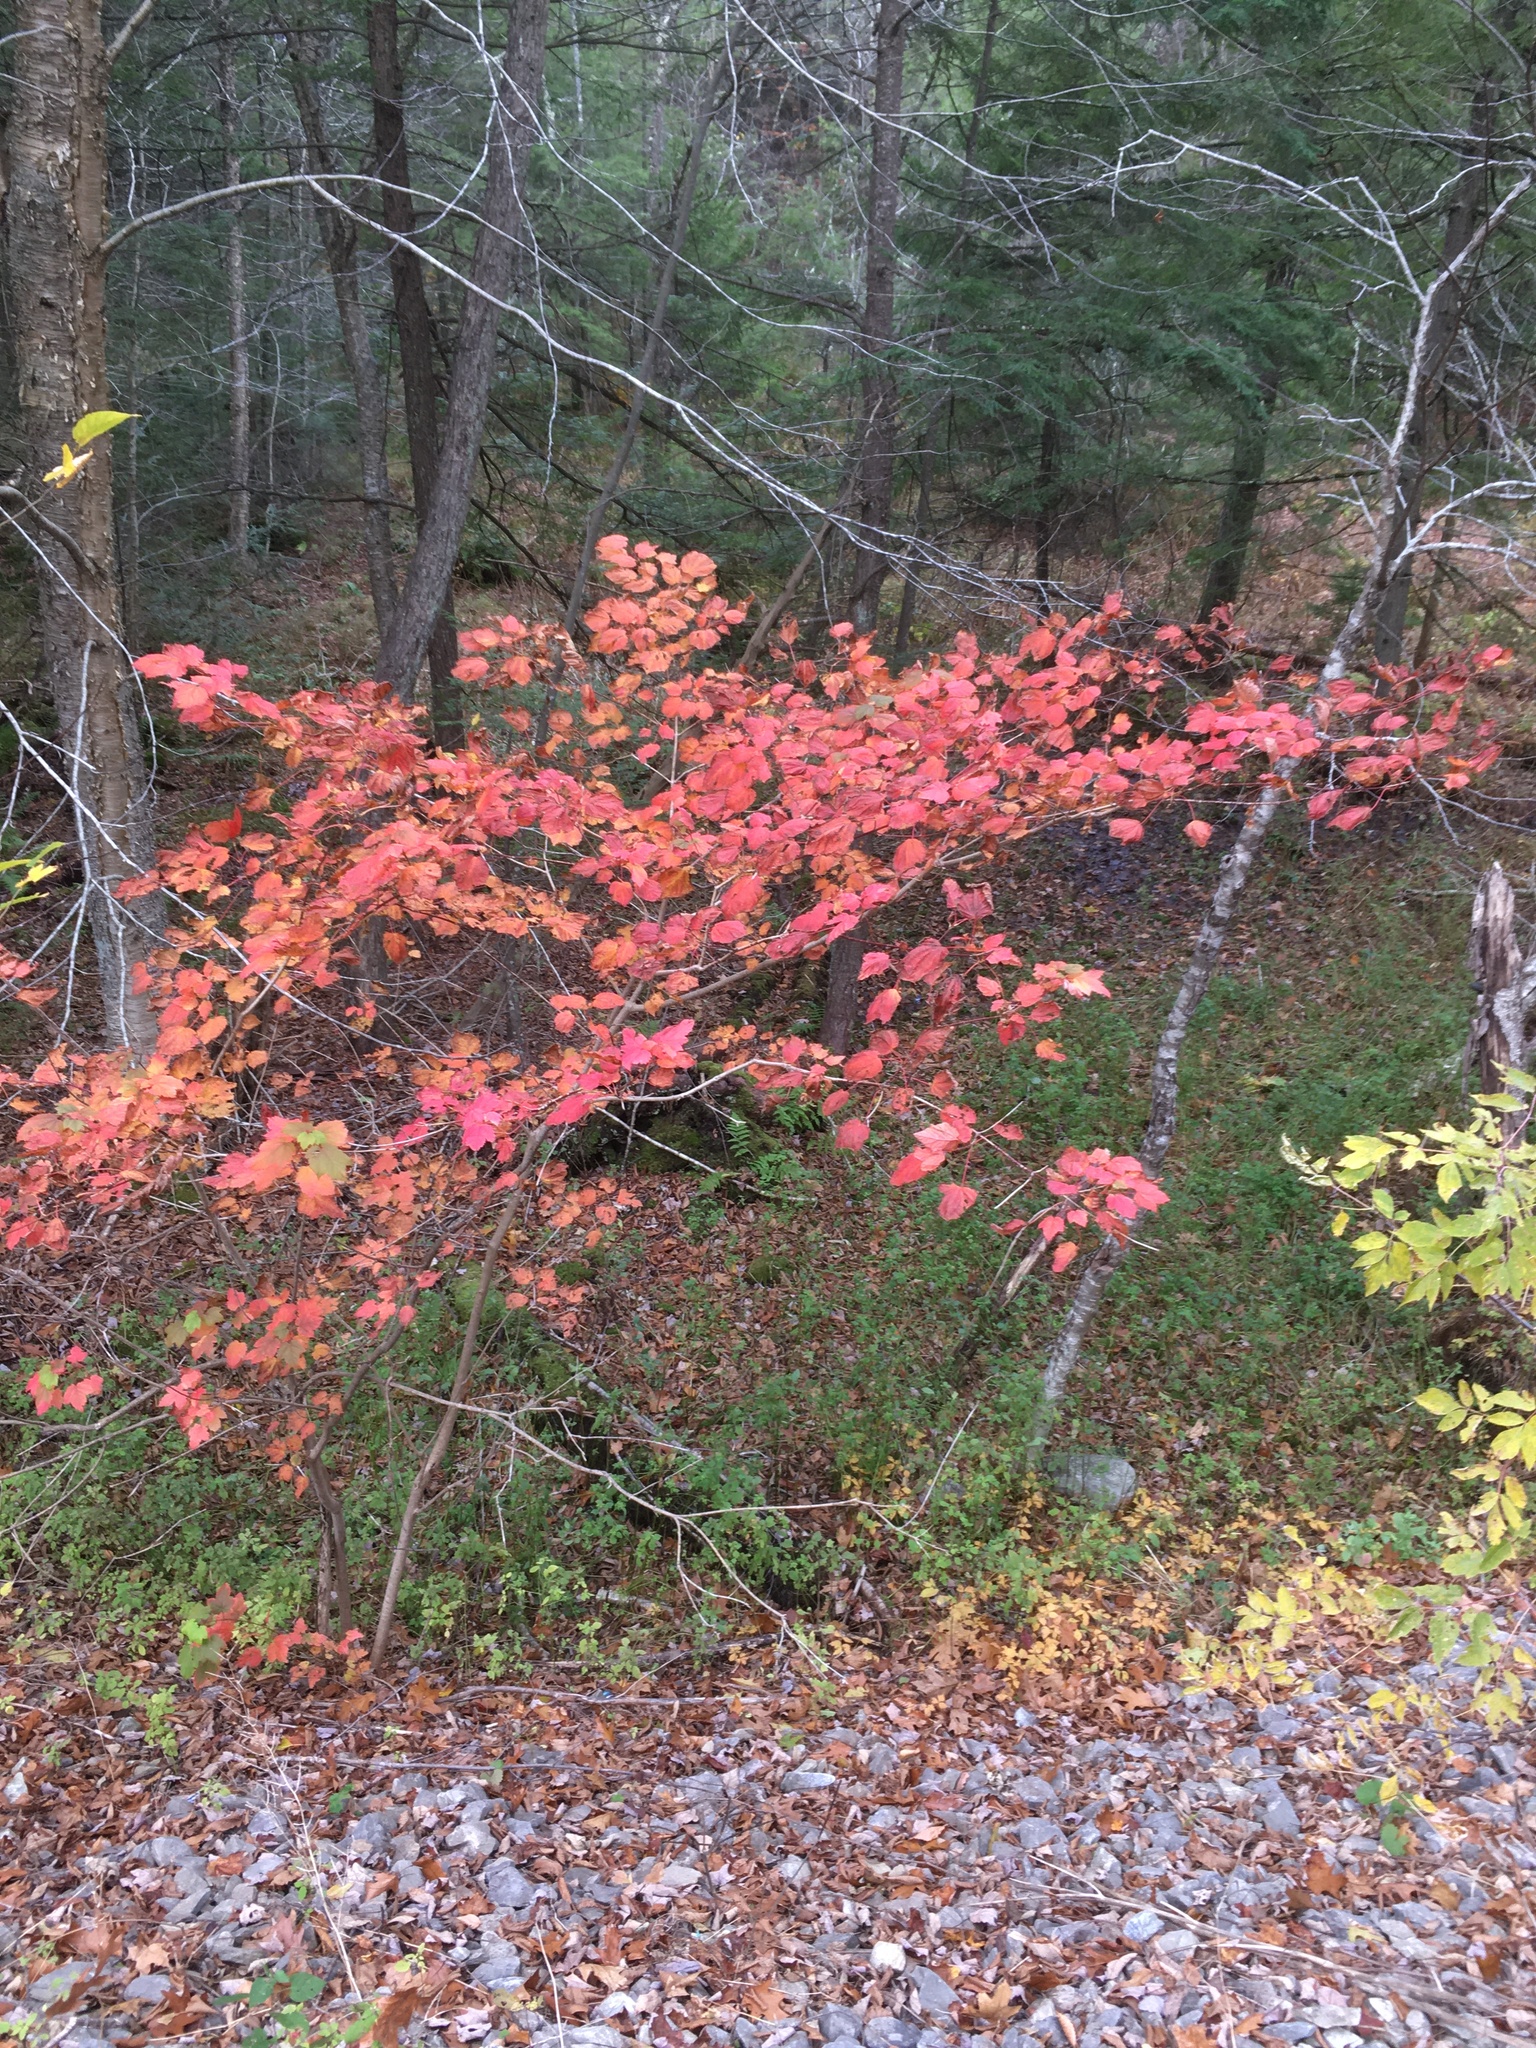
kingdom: Plantae
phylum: Tracheophyta
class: Magnoliopsida
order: Sapindales
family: Sapindaceae
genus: Acer
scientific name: Acer rubrum
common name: Red maple
